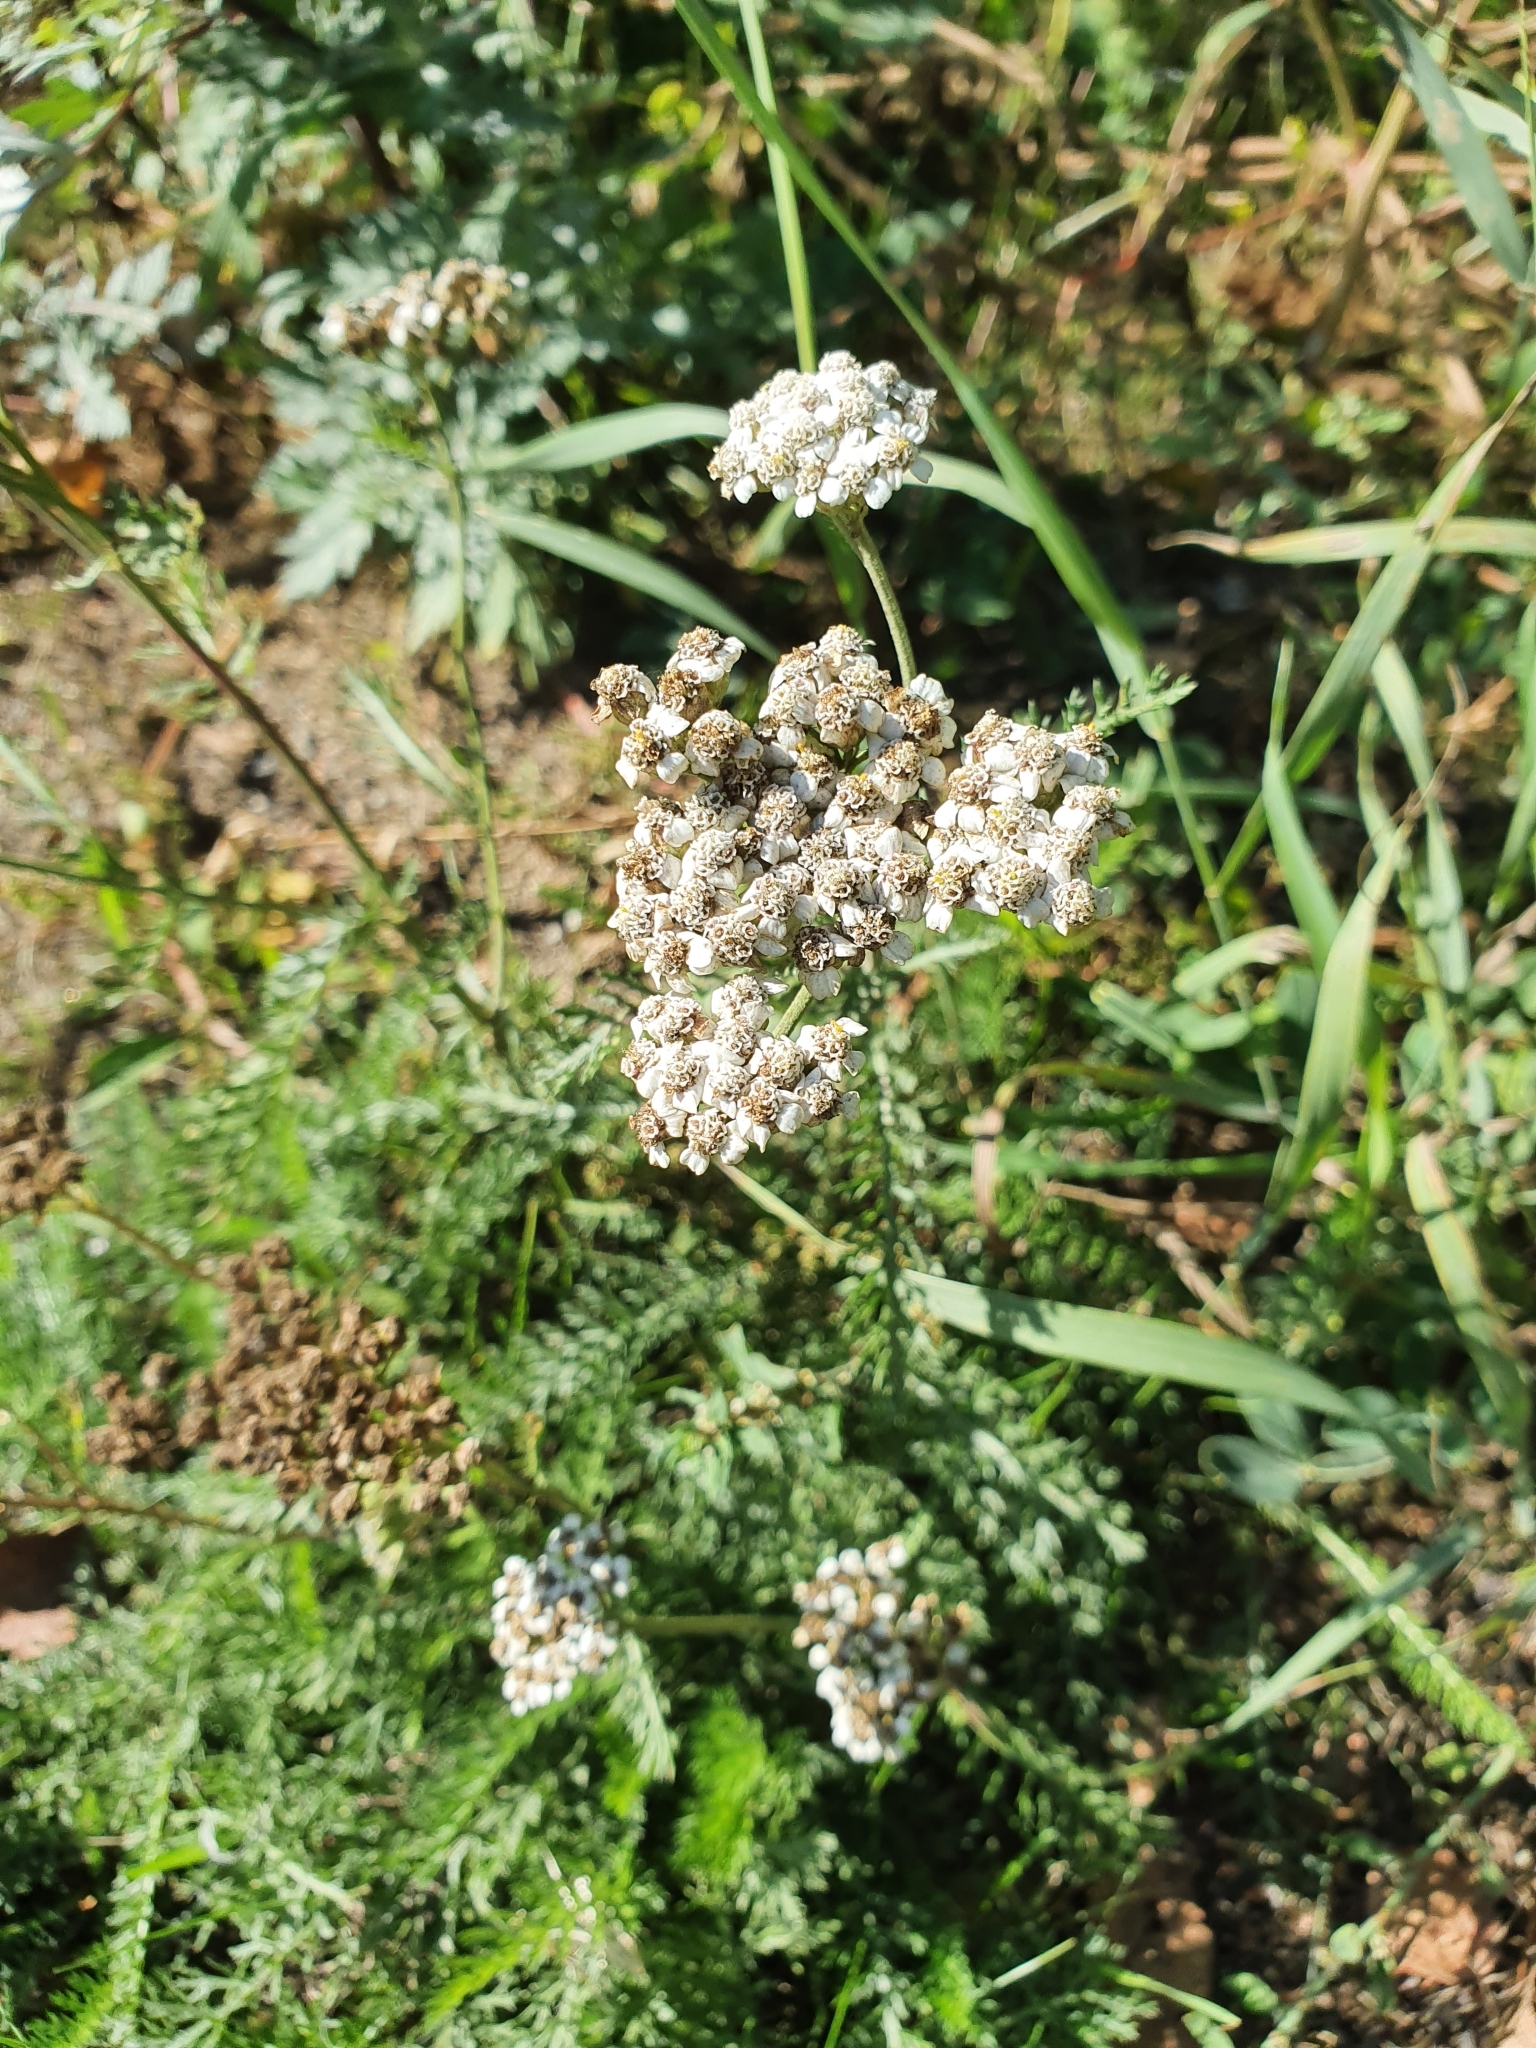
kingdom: Plantae
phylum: Tracheophyta
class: Magnoliopsida
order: Asterales
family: Asteraceae
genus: Achillea
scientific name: Achillea millefolium
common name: Yarrow
